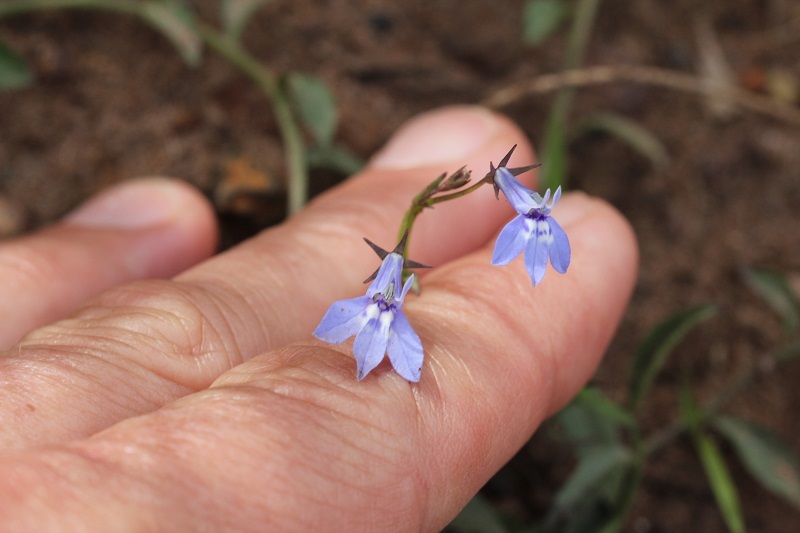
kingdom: Plantae
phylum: Tracheophyta
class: Magnoliopsida
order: Asterales
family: Campanulaceae
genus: Lobelia
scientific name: Lobelia flaccida
